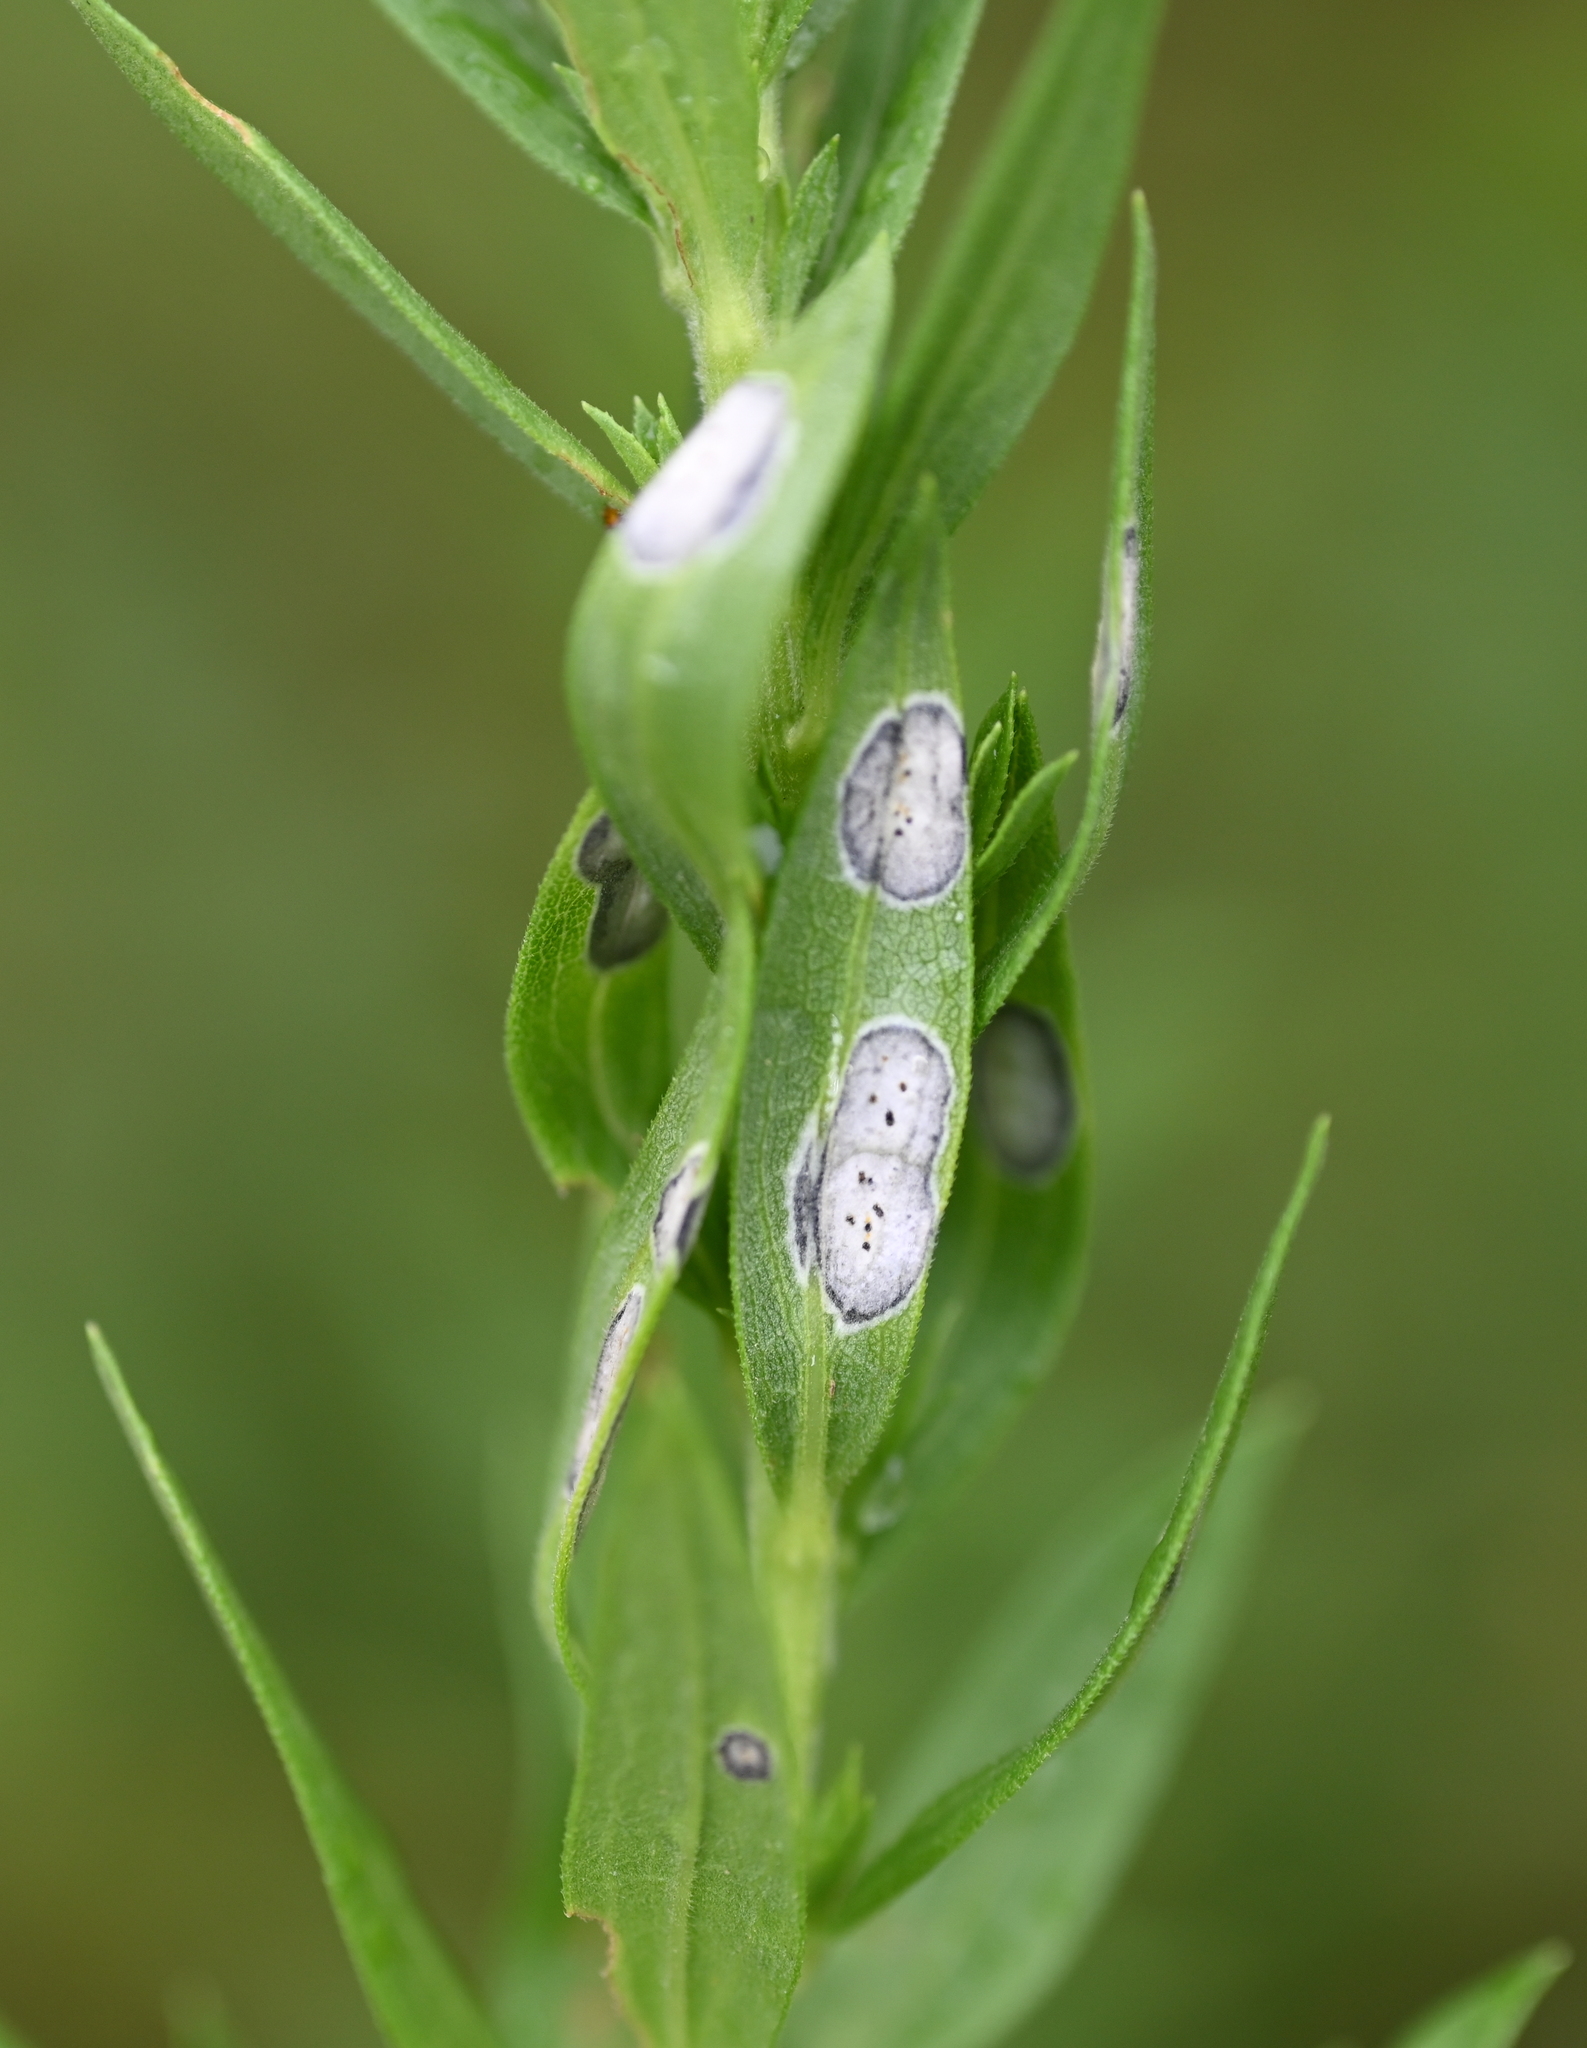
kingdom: Animalia
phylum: Arthropoda
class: Insecta
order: Diptera
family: Cecidomyiidae
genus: Asteromyia
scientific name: Asteromyia carbonifera
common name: Carbonifera goldenrod gall midge
